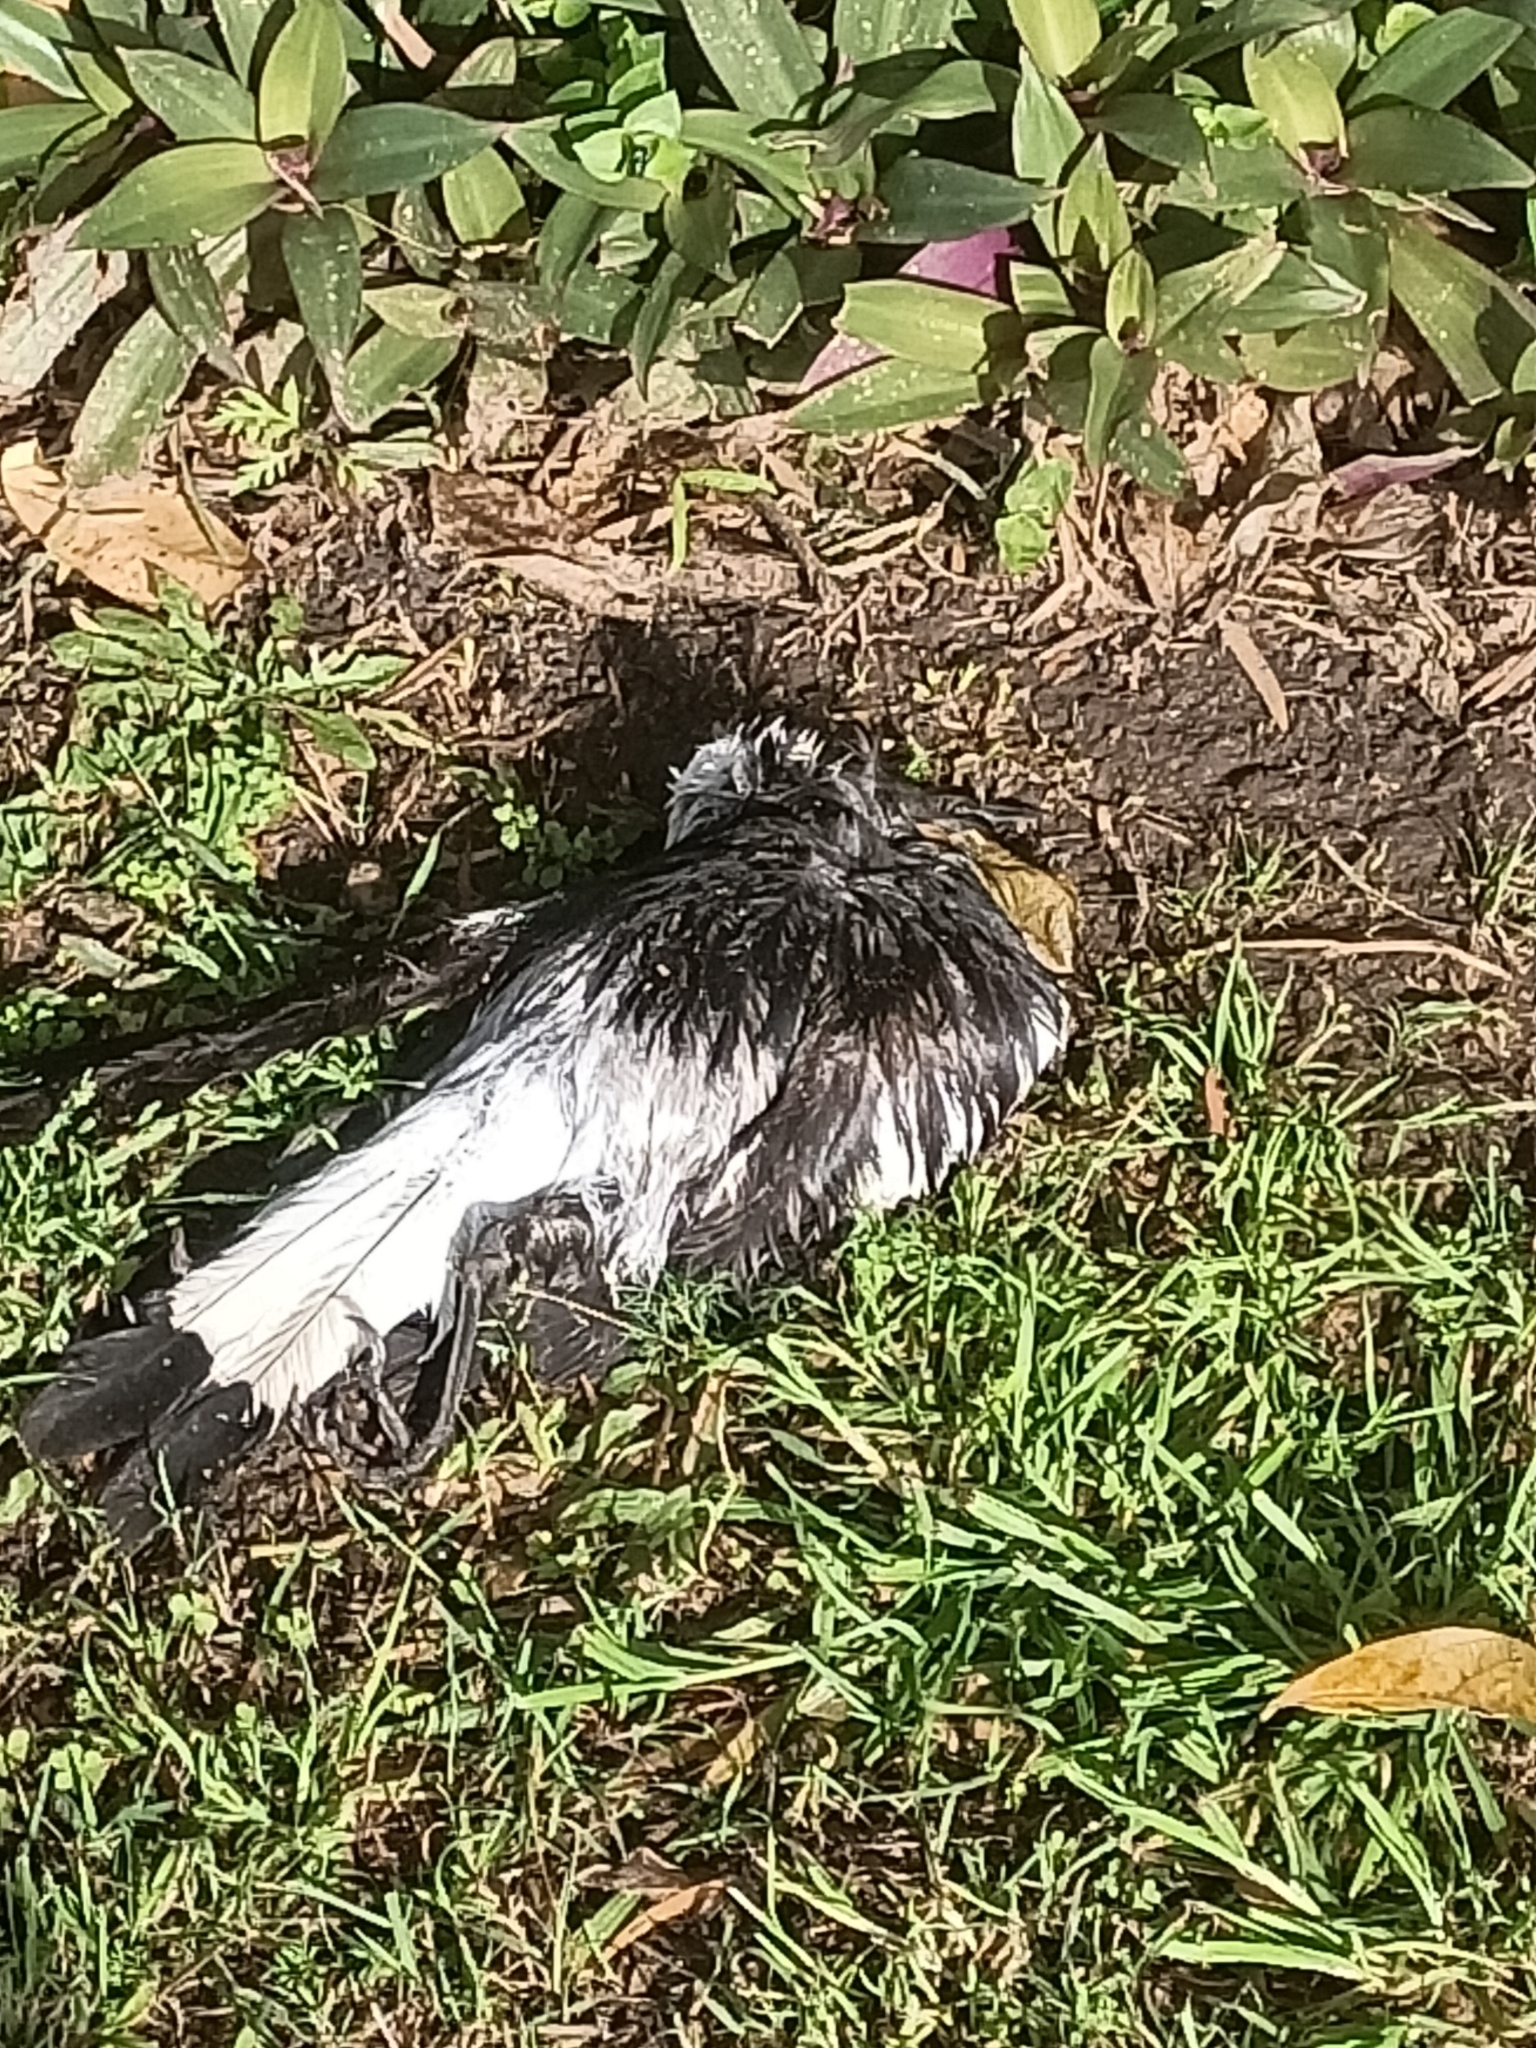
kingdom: Animalia
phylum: Chordata
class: Aves
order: Passeriformes
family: Cracticidae
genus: Gymnorhina
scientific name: Gymnorhina tibicen
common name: Australian magpie
